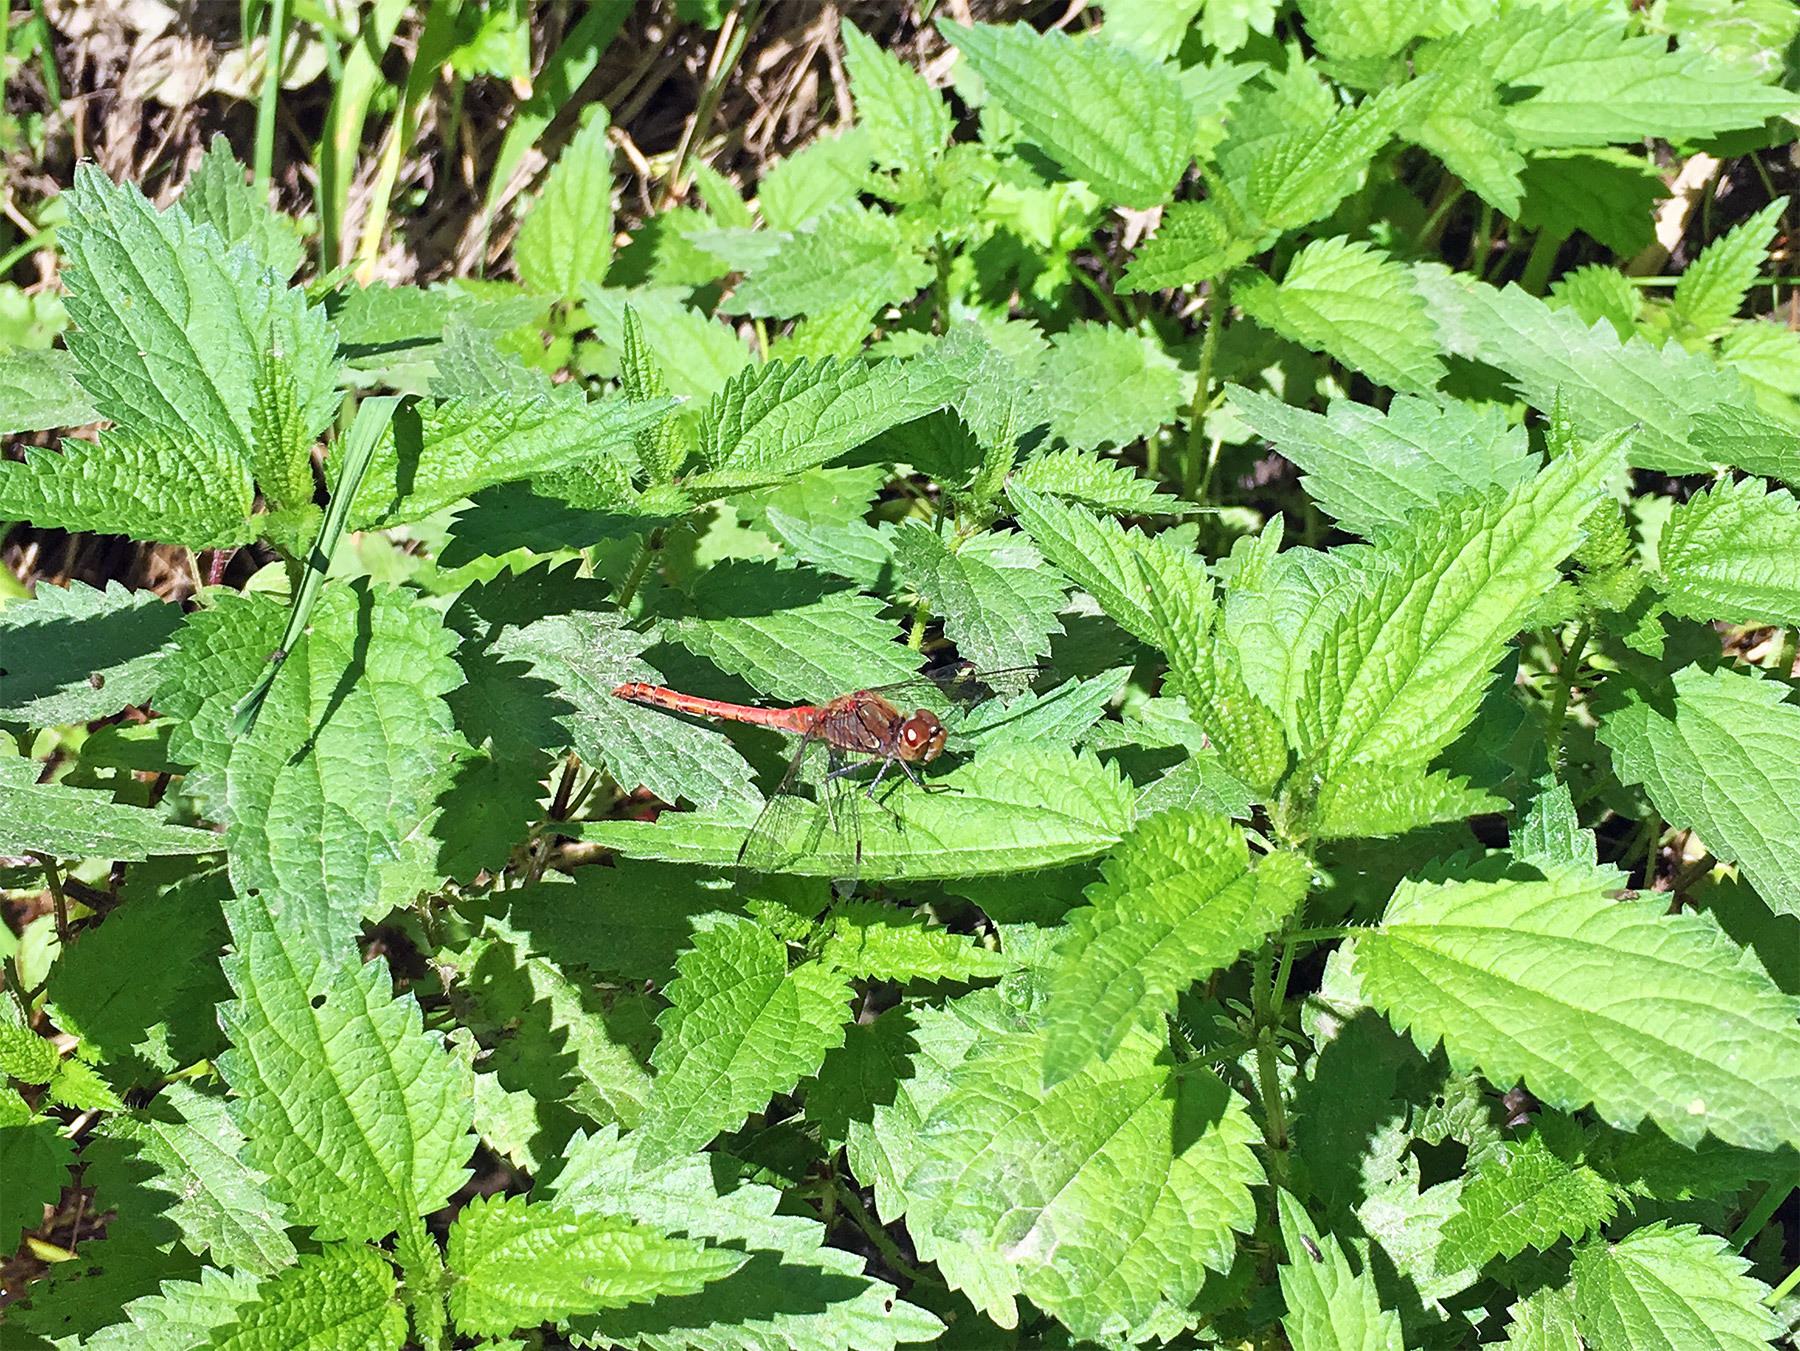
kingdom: Animalia
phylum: Arthropoda
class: Insecta
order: Odonata
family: Libellulidae
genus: Sympetrum
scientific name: Sympetrum striolatum
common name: Common darter
